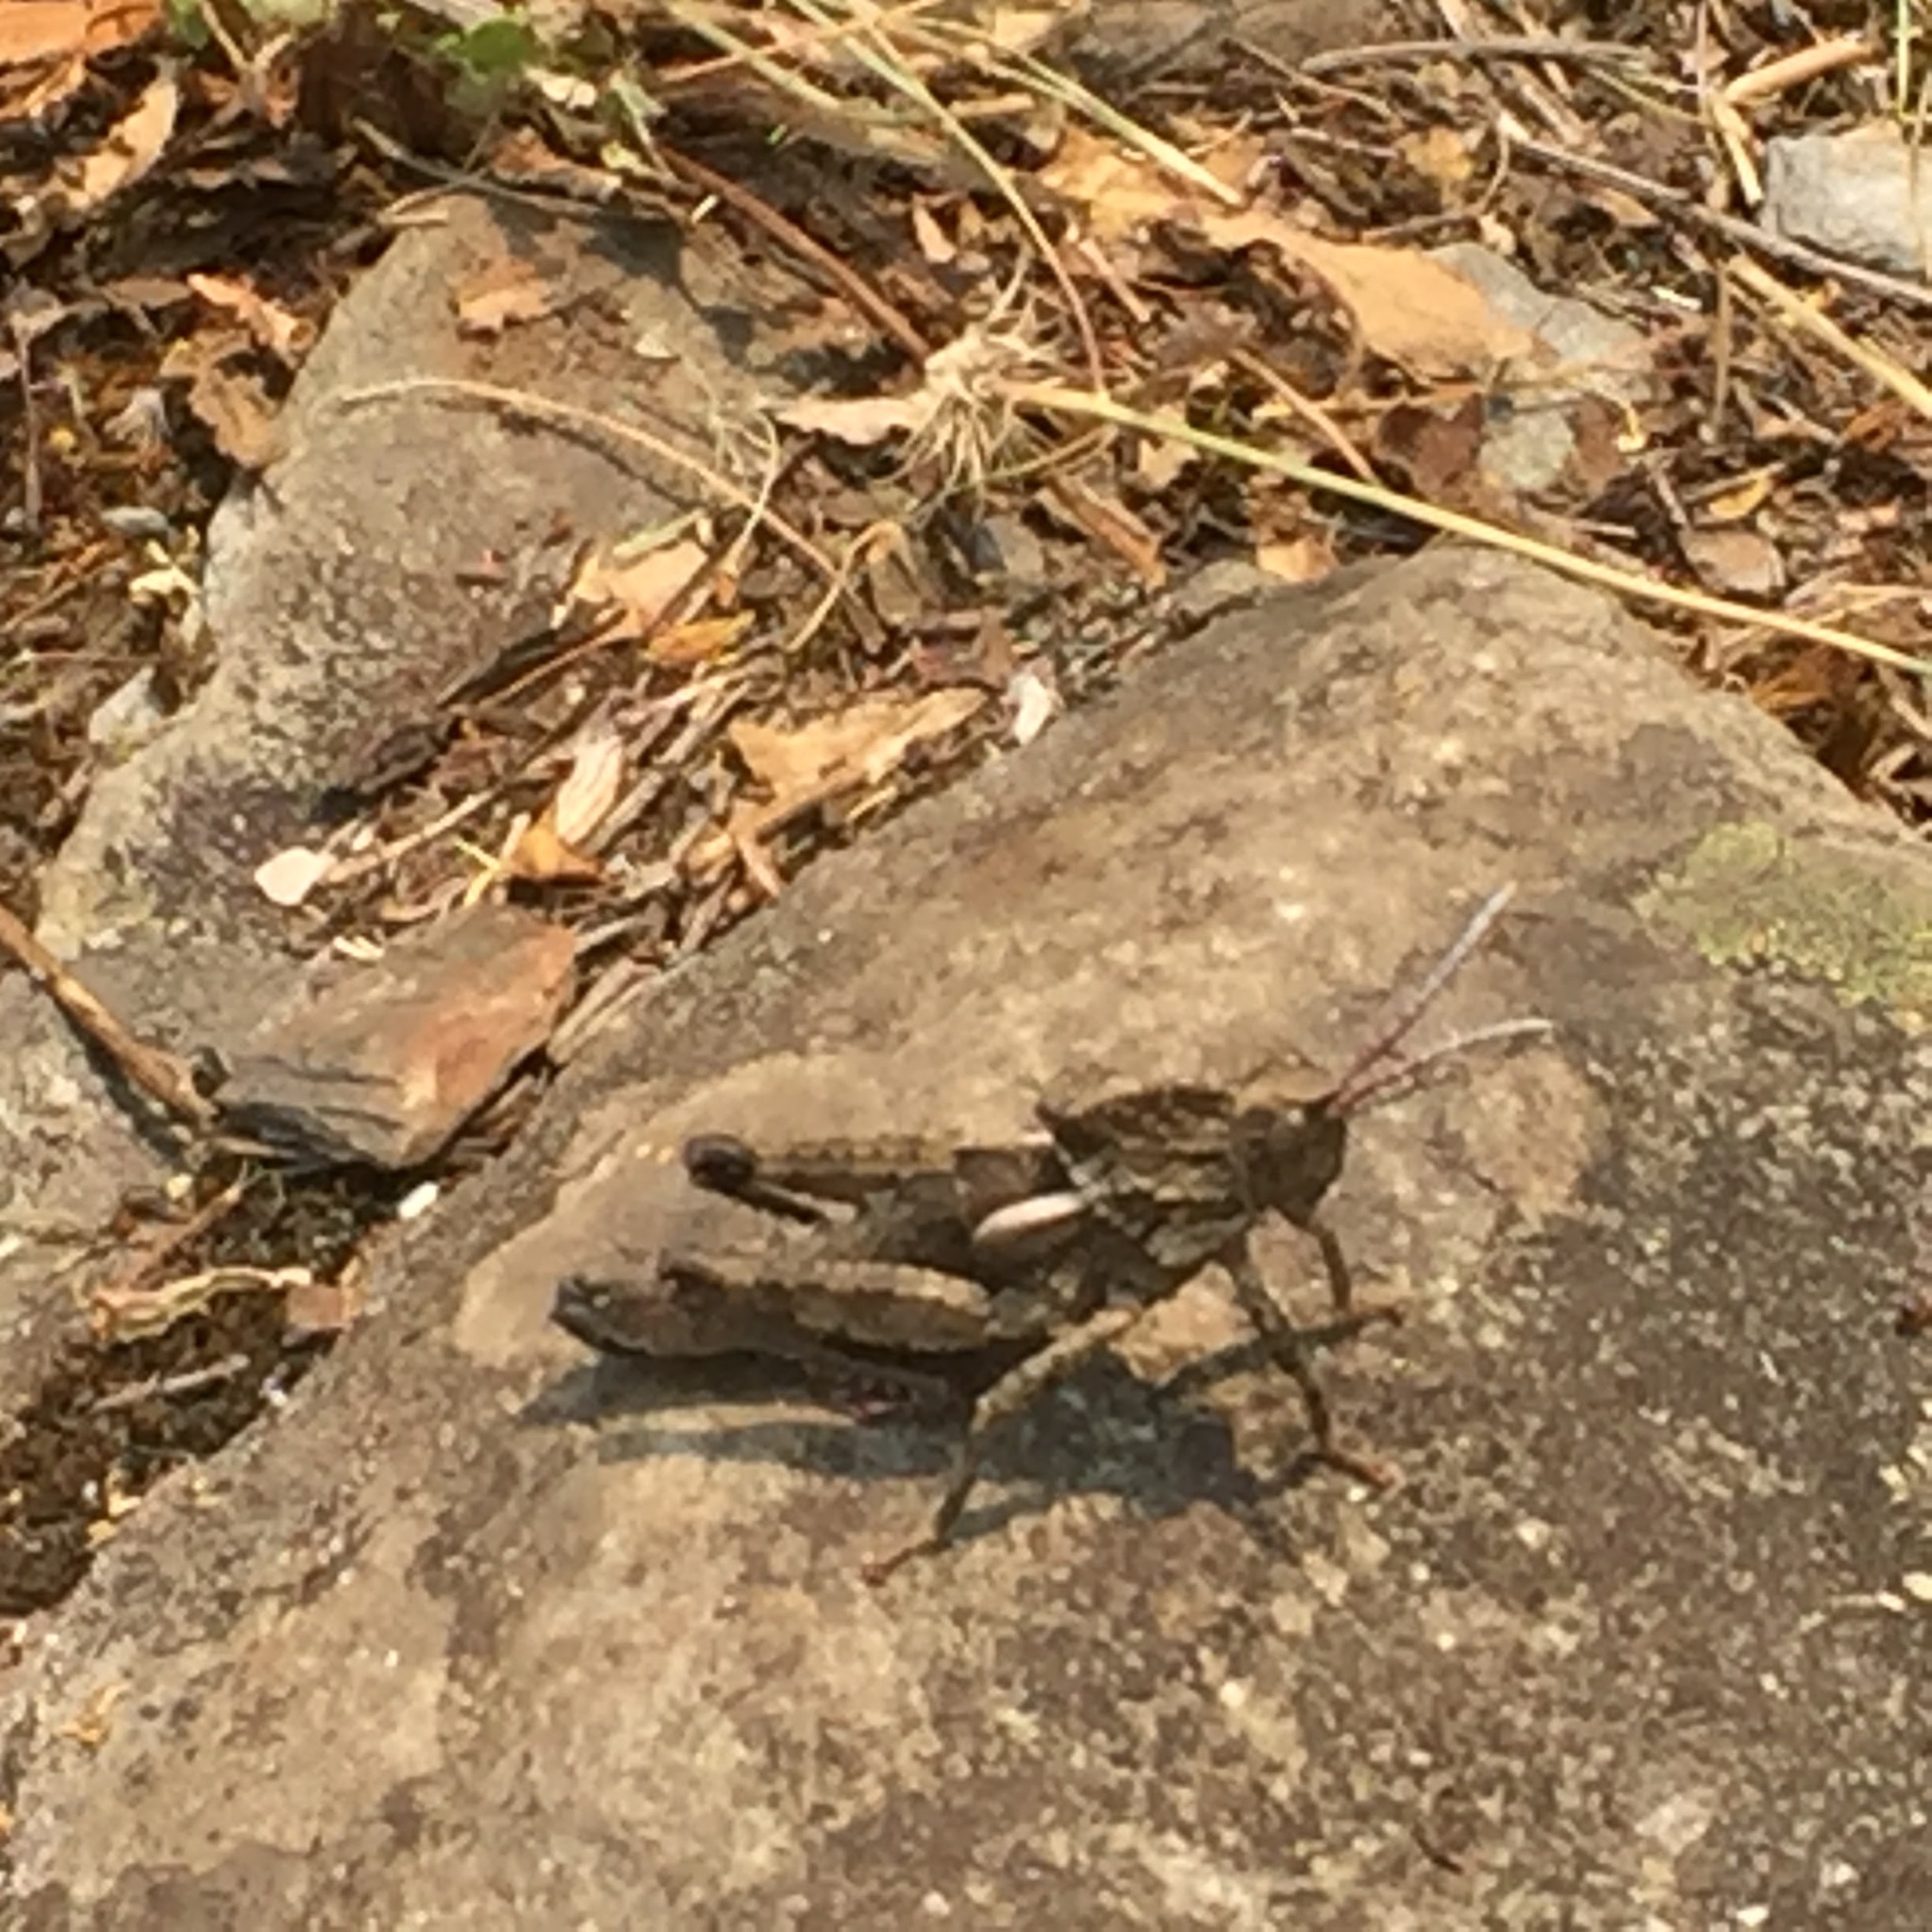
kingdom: Animalia
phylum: Arthropoda
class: Insecta
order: Orthoptera
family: Pamphagidae
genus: Eumigus
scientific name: Eumigus ayresi
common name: Ayres' stone grasshopper
